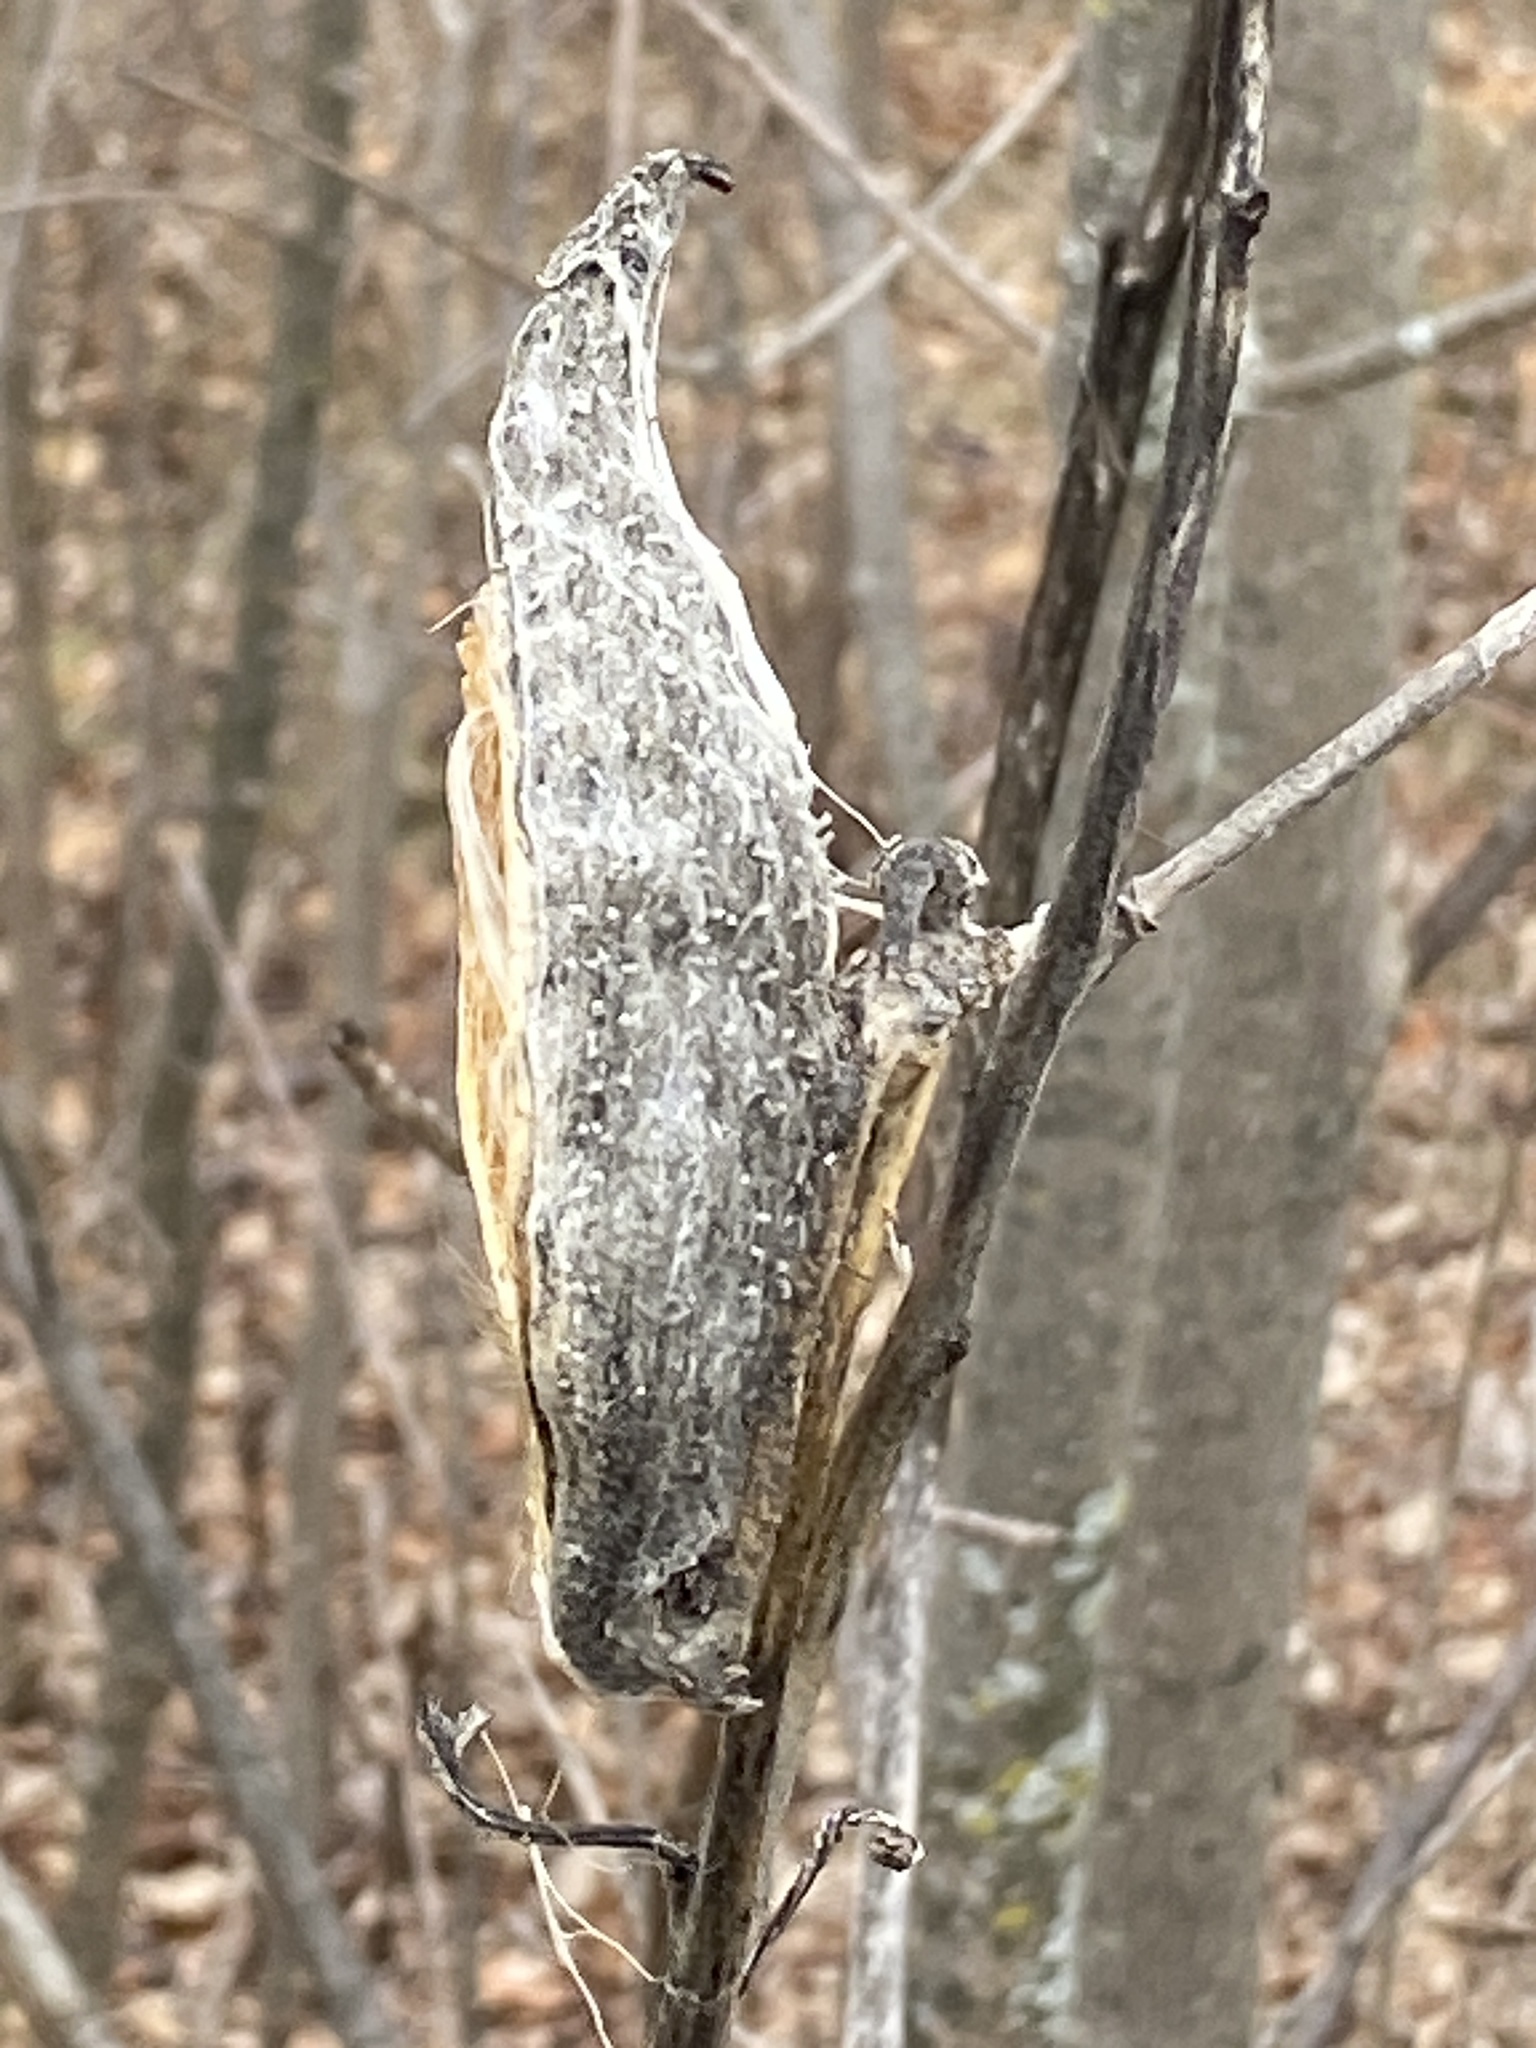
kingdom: Plantae
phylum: Tracheophyta
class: Magnoliopsida
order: Gentianales
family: Apocynaceae
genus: Asclepias
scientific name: Asclepias syriaca
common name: Common milkweed
